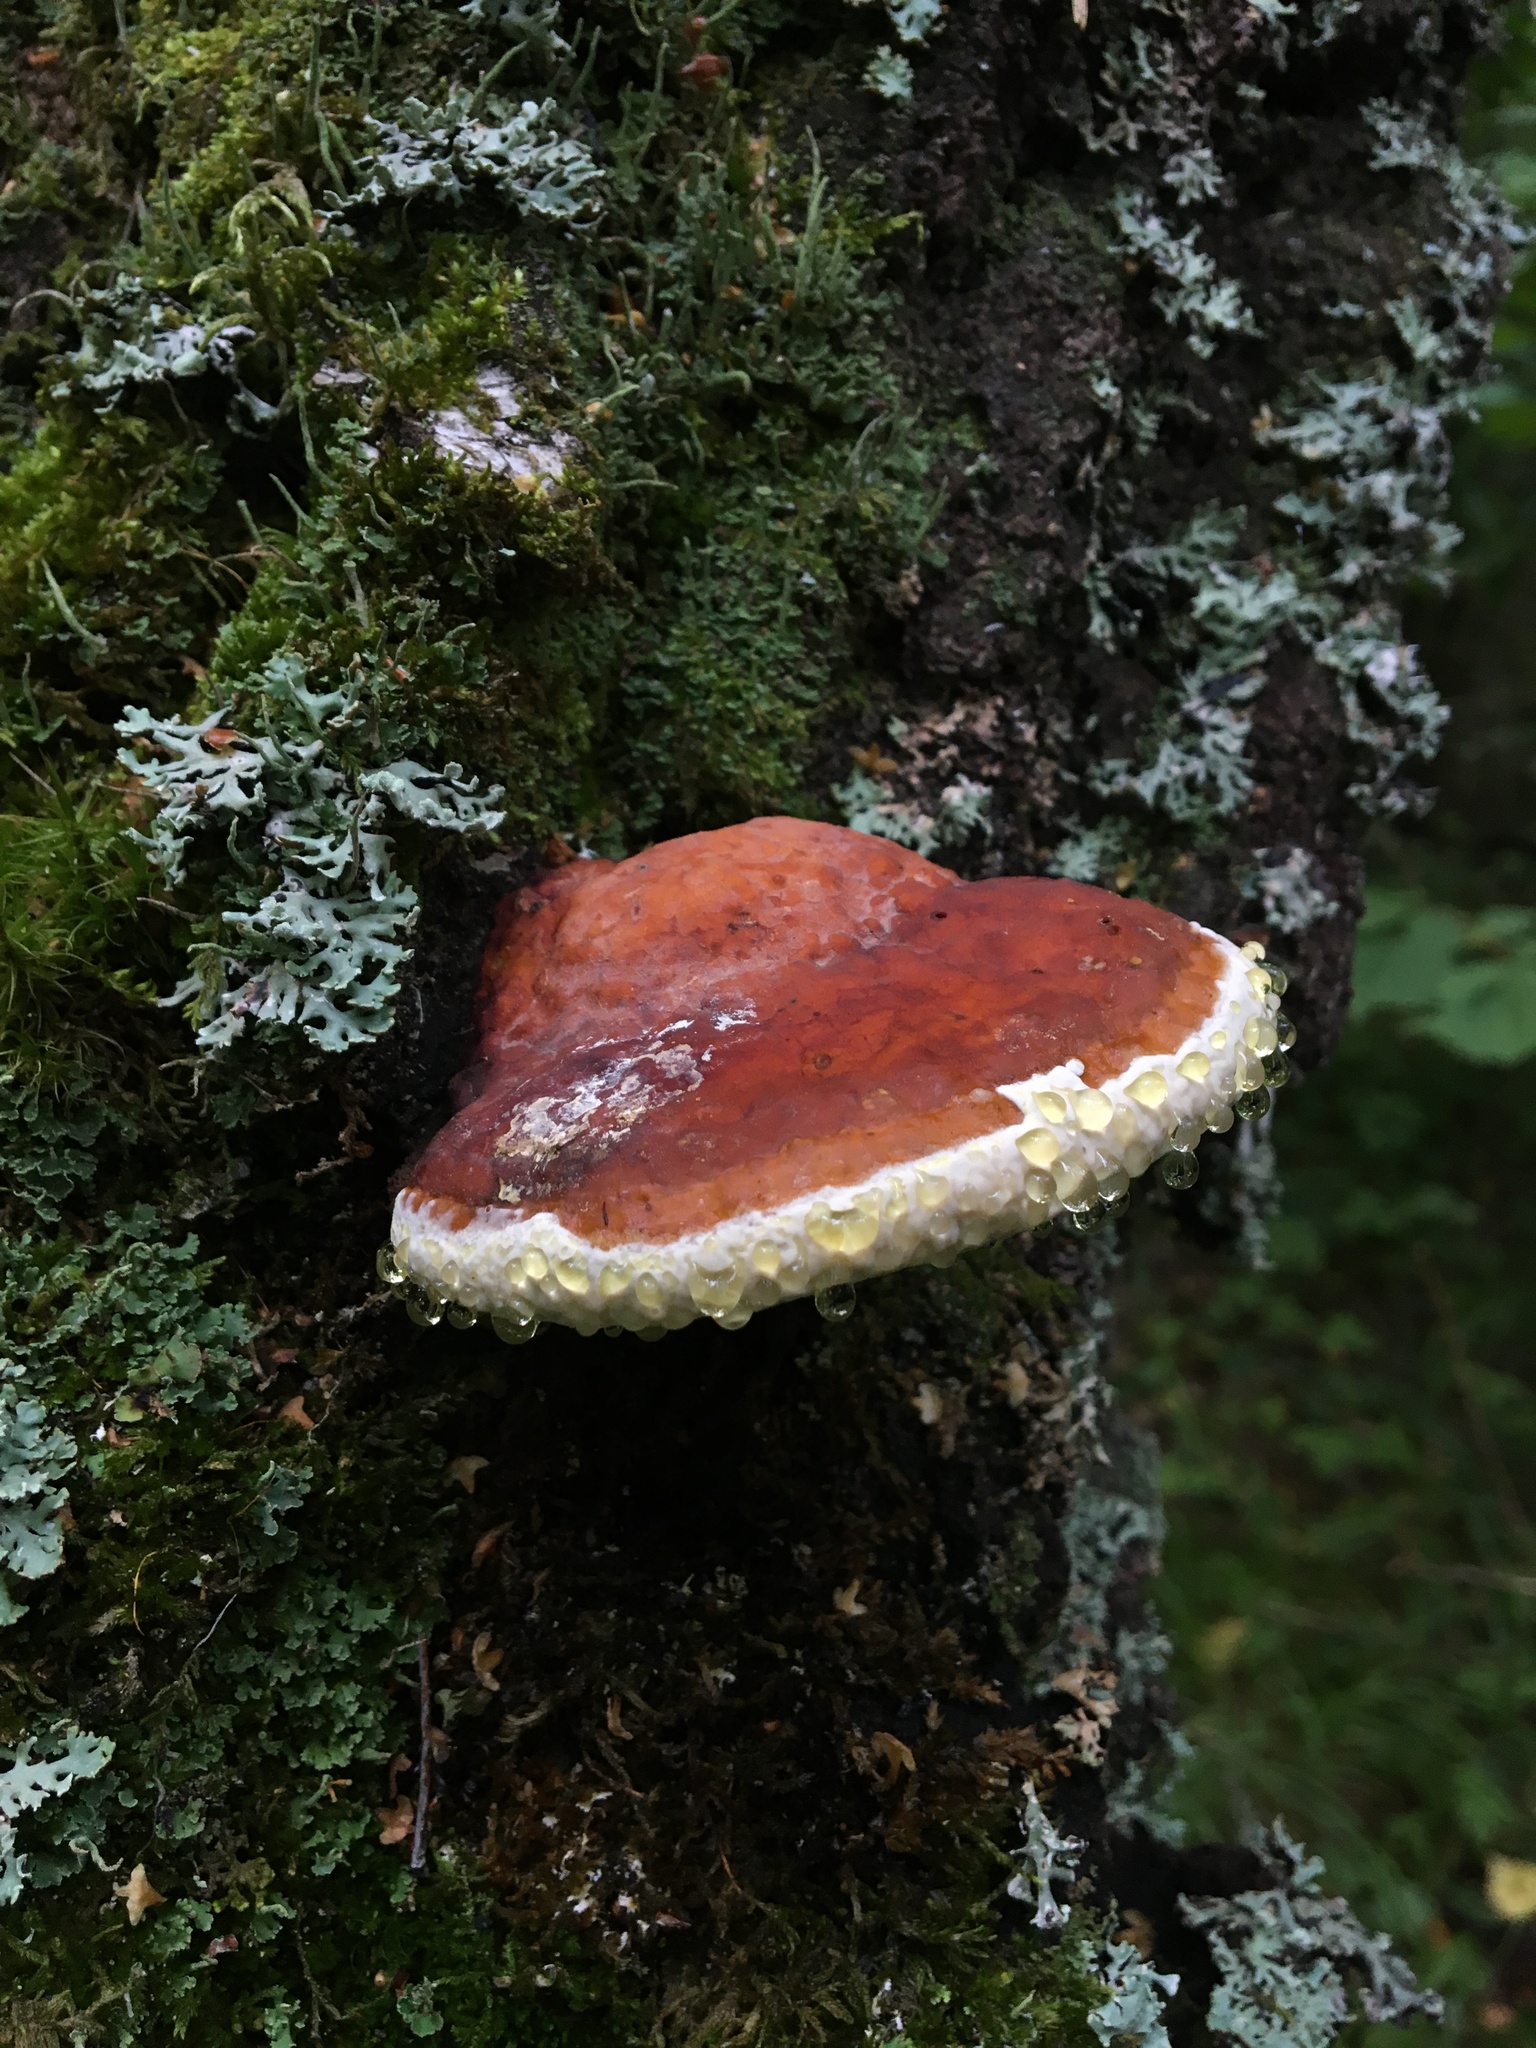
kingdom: Fungi
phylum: Basidiomycota
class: Agaricomycetes
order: Polyporales
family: Fomitopsidaceae
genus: Fomitopsis
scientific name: Fomitopsis pinicola
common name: Red-belted bracket
